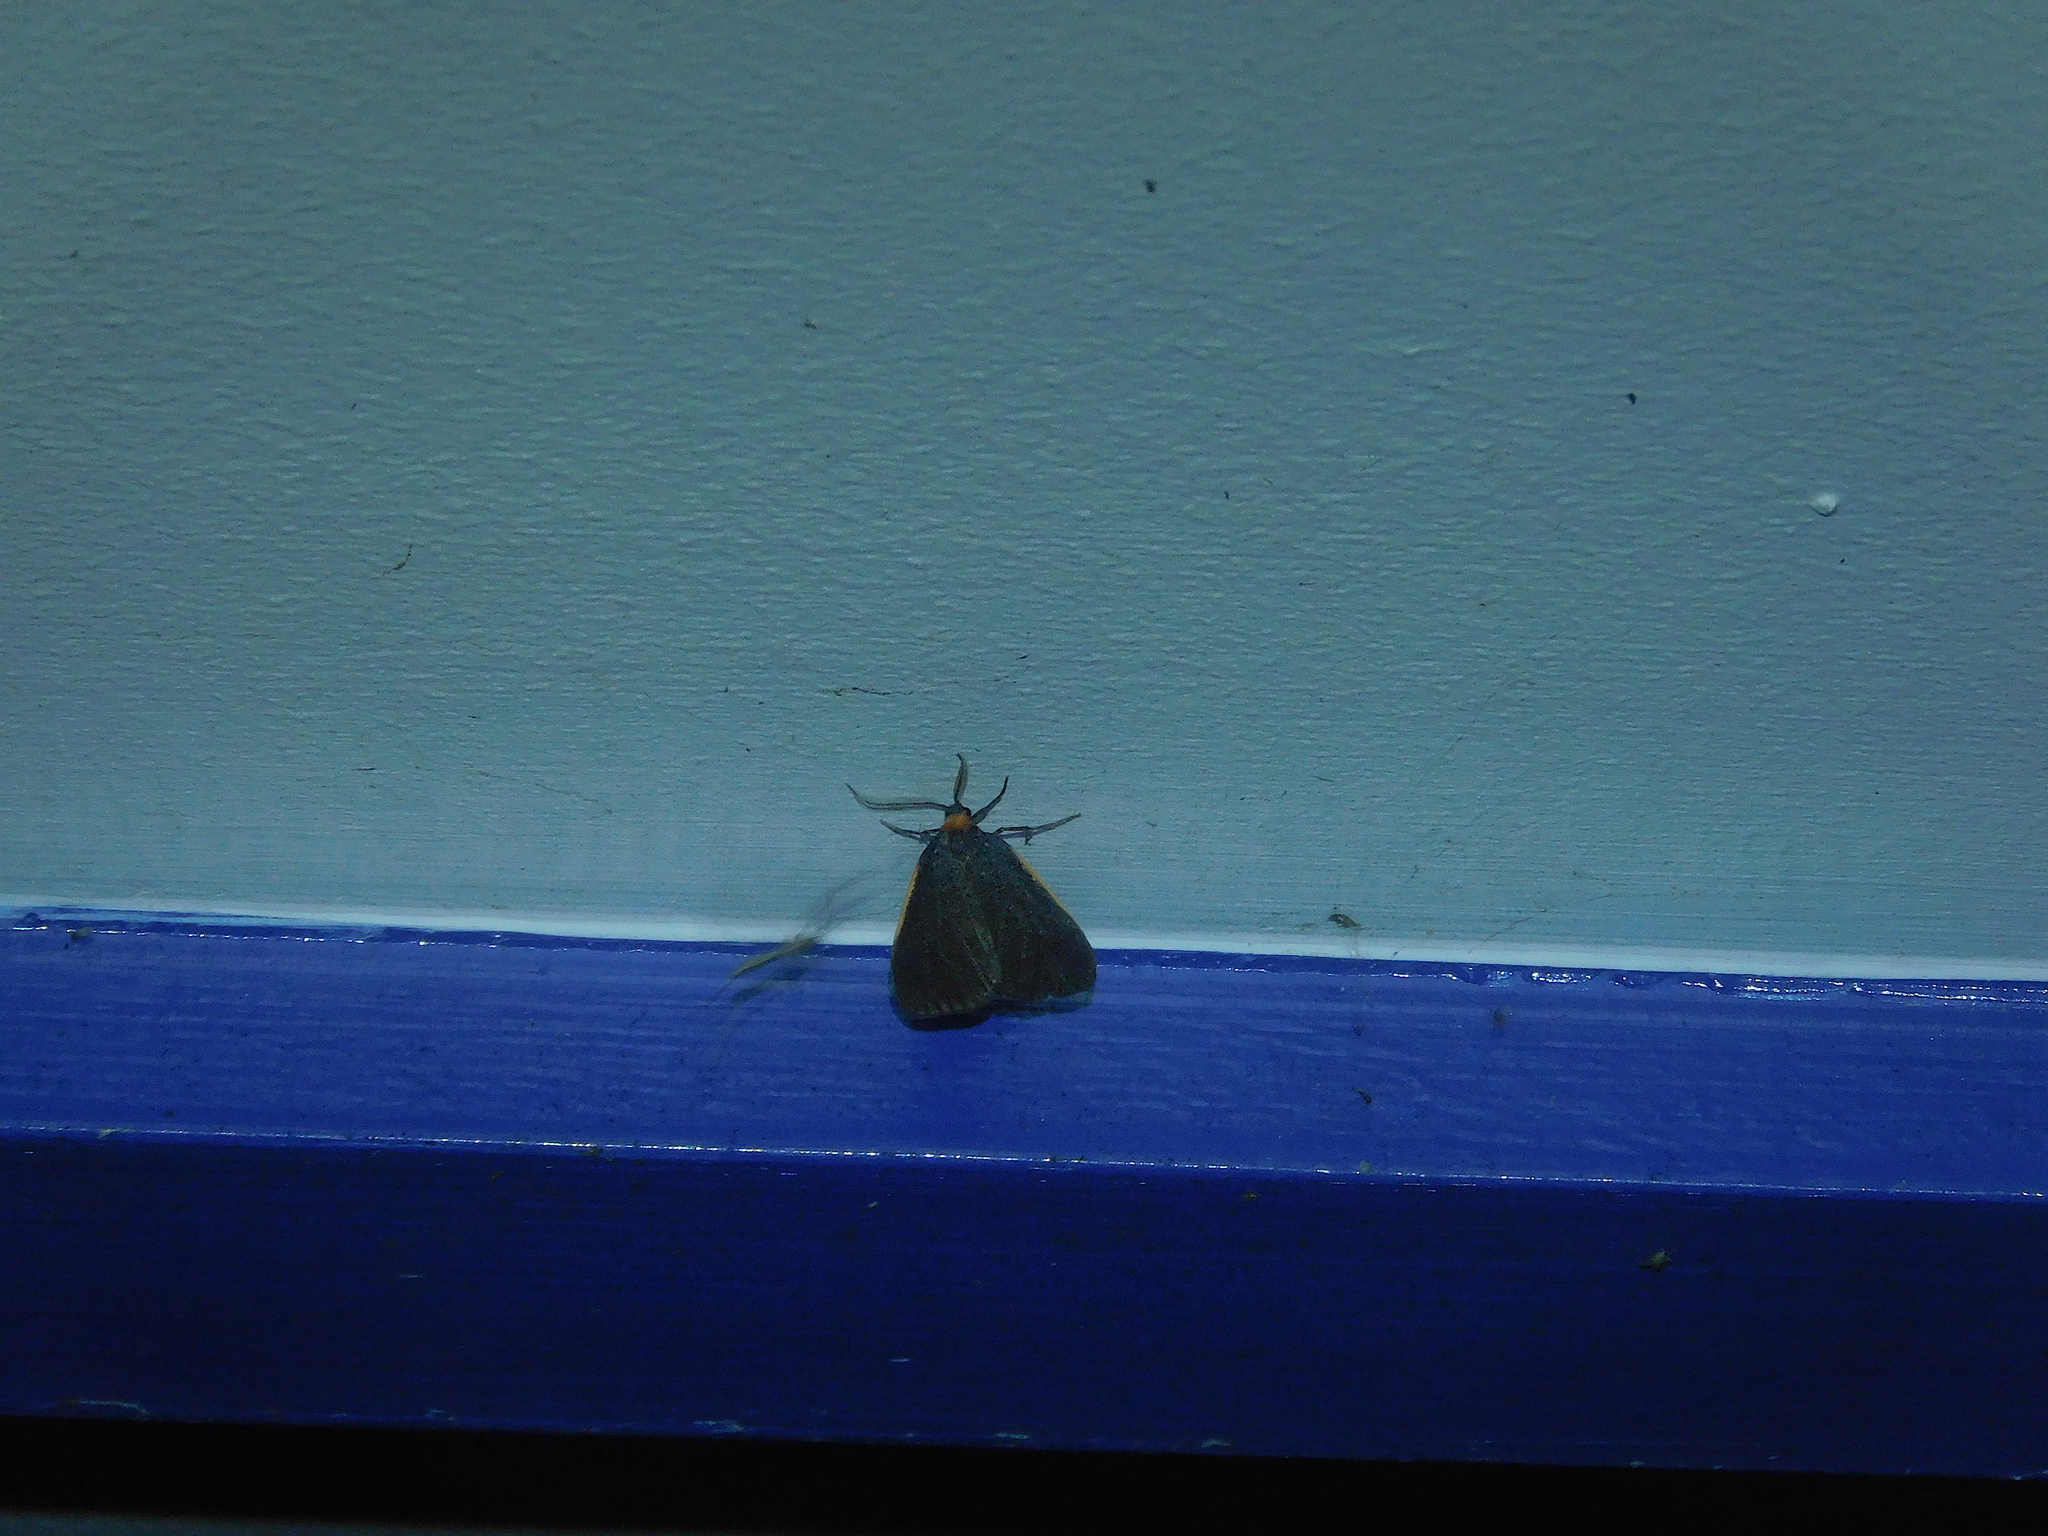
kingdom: Animalia
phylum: Arthropoda
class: Insecta
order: Lepidoptera
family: Erebidae
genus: Castulo
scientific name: Castulo doubledayi
